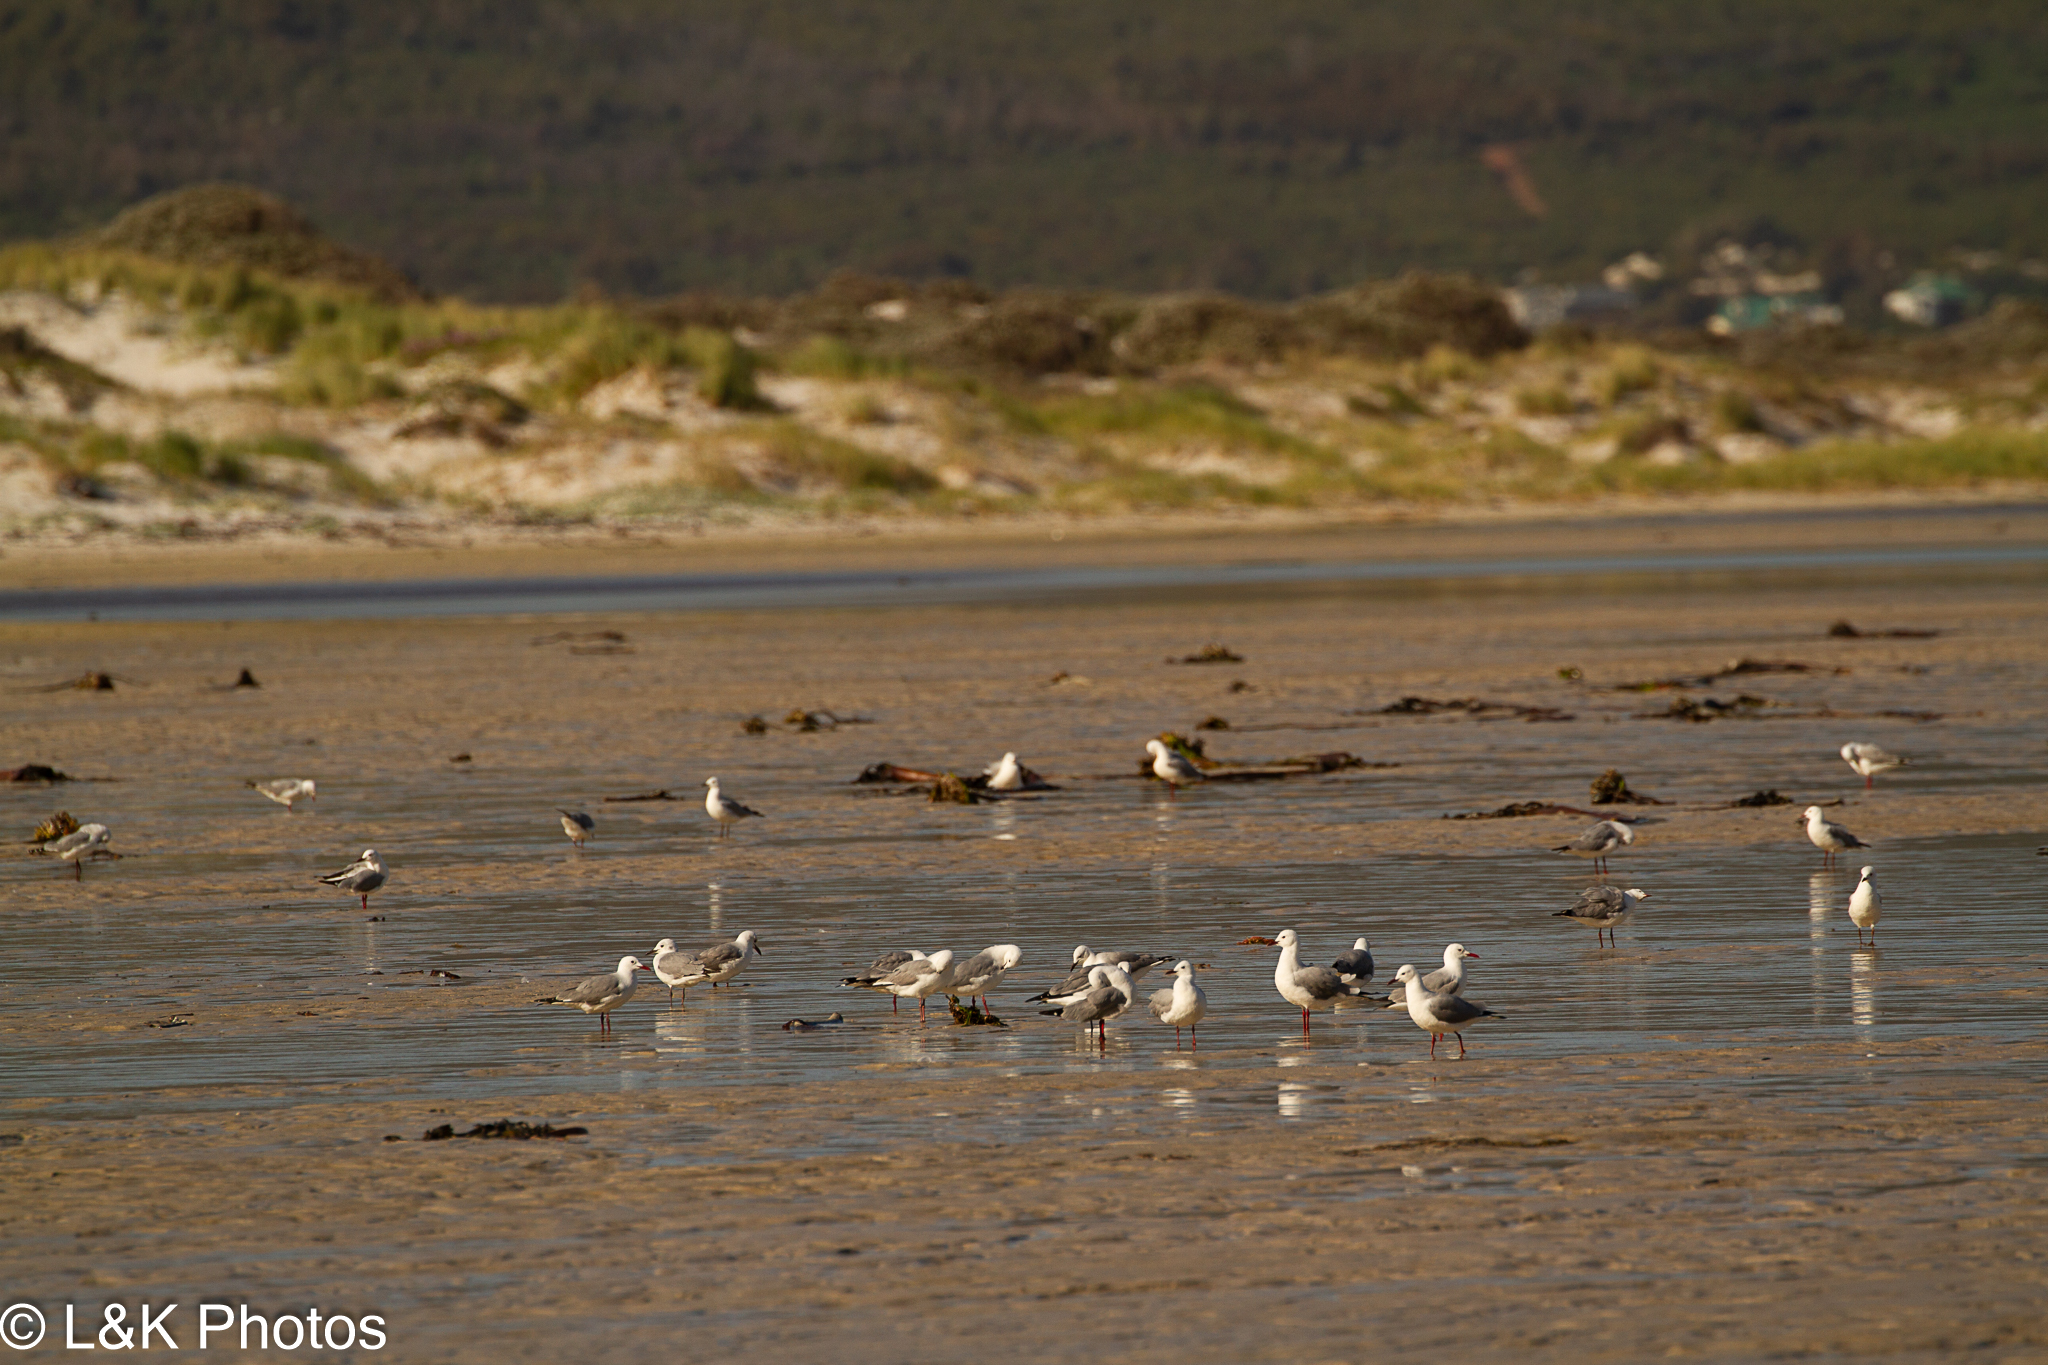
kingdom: Animalia
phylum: Chordata
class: Aves
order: Charadriiformes
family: Laridae
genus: Chroicocephalus
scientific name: Chroicocephalus hartlaubii
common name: Hartlaub's gull
